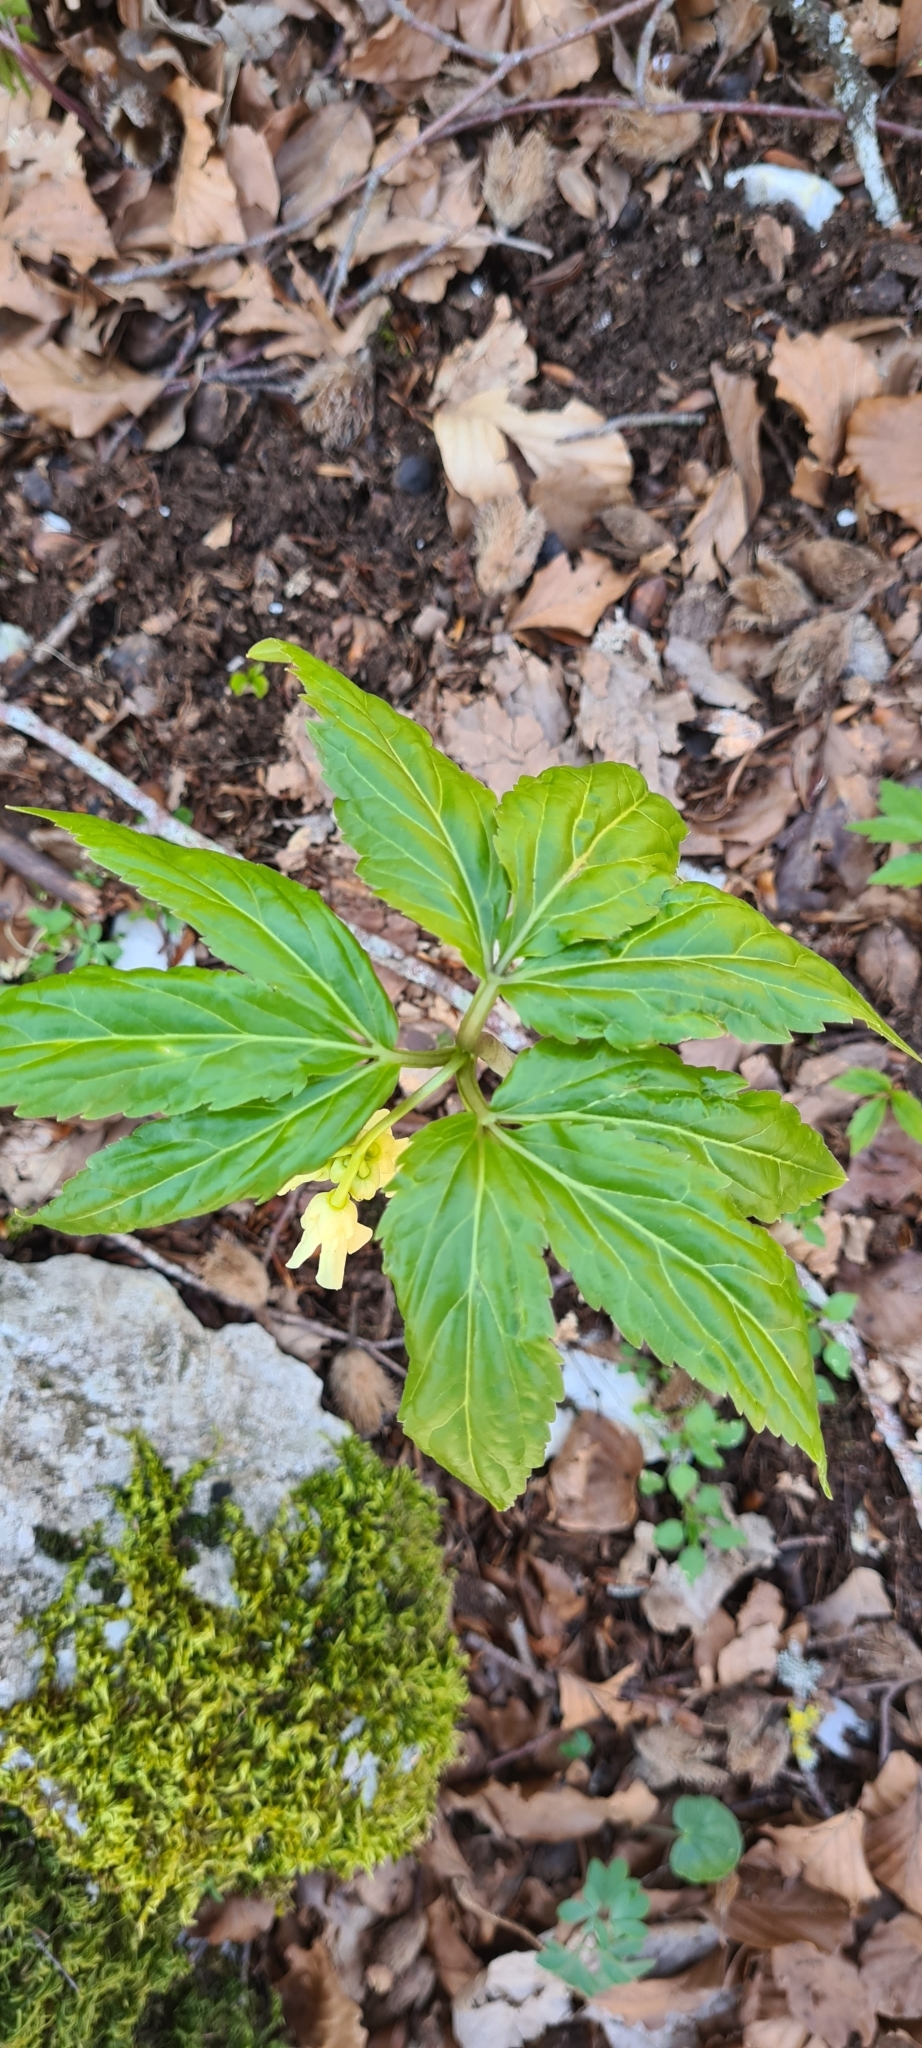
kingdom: Plantae
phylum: Tracheophyta
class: Magnoliopsida
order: Brassicales
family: Brassicaceae
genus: Cardamine
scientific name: Cardamine enneaphyllos
